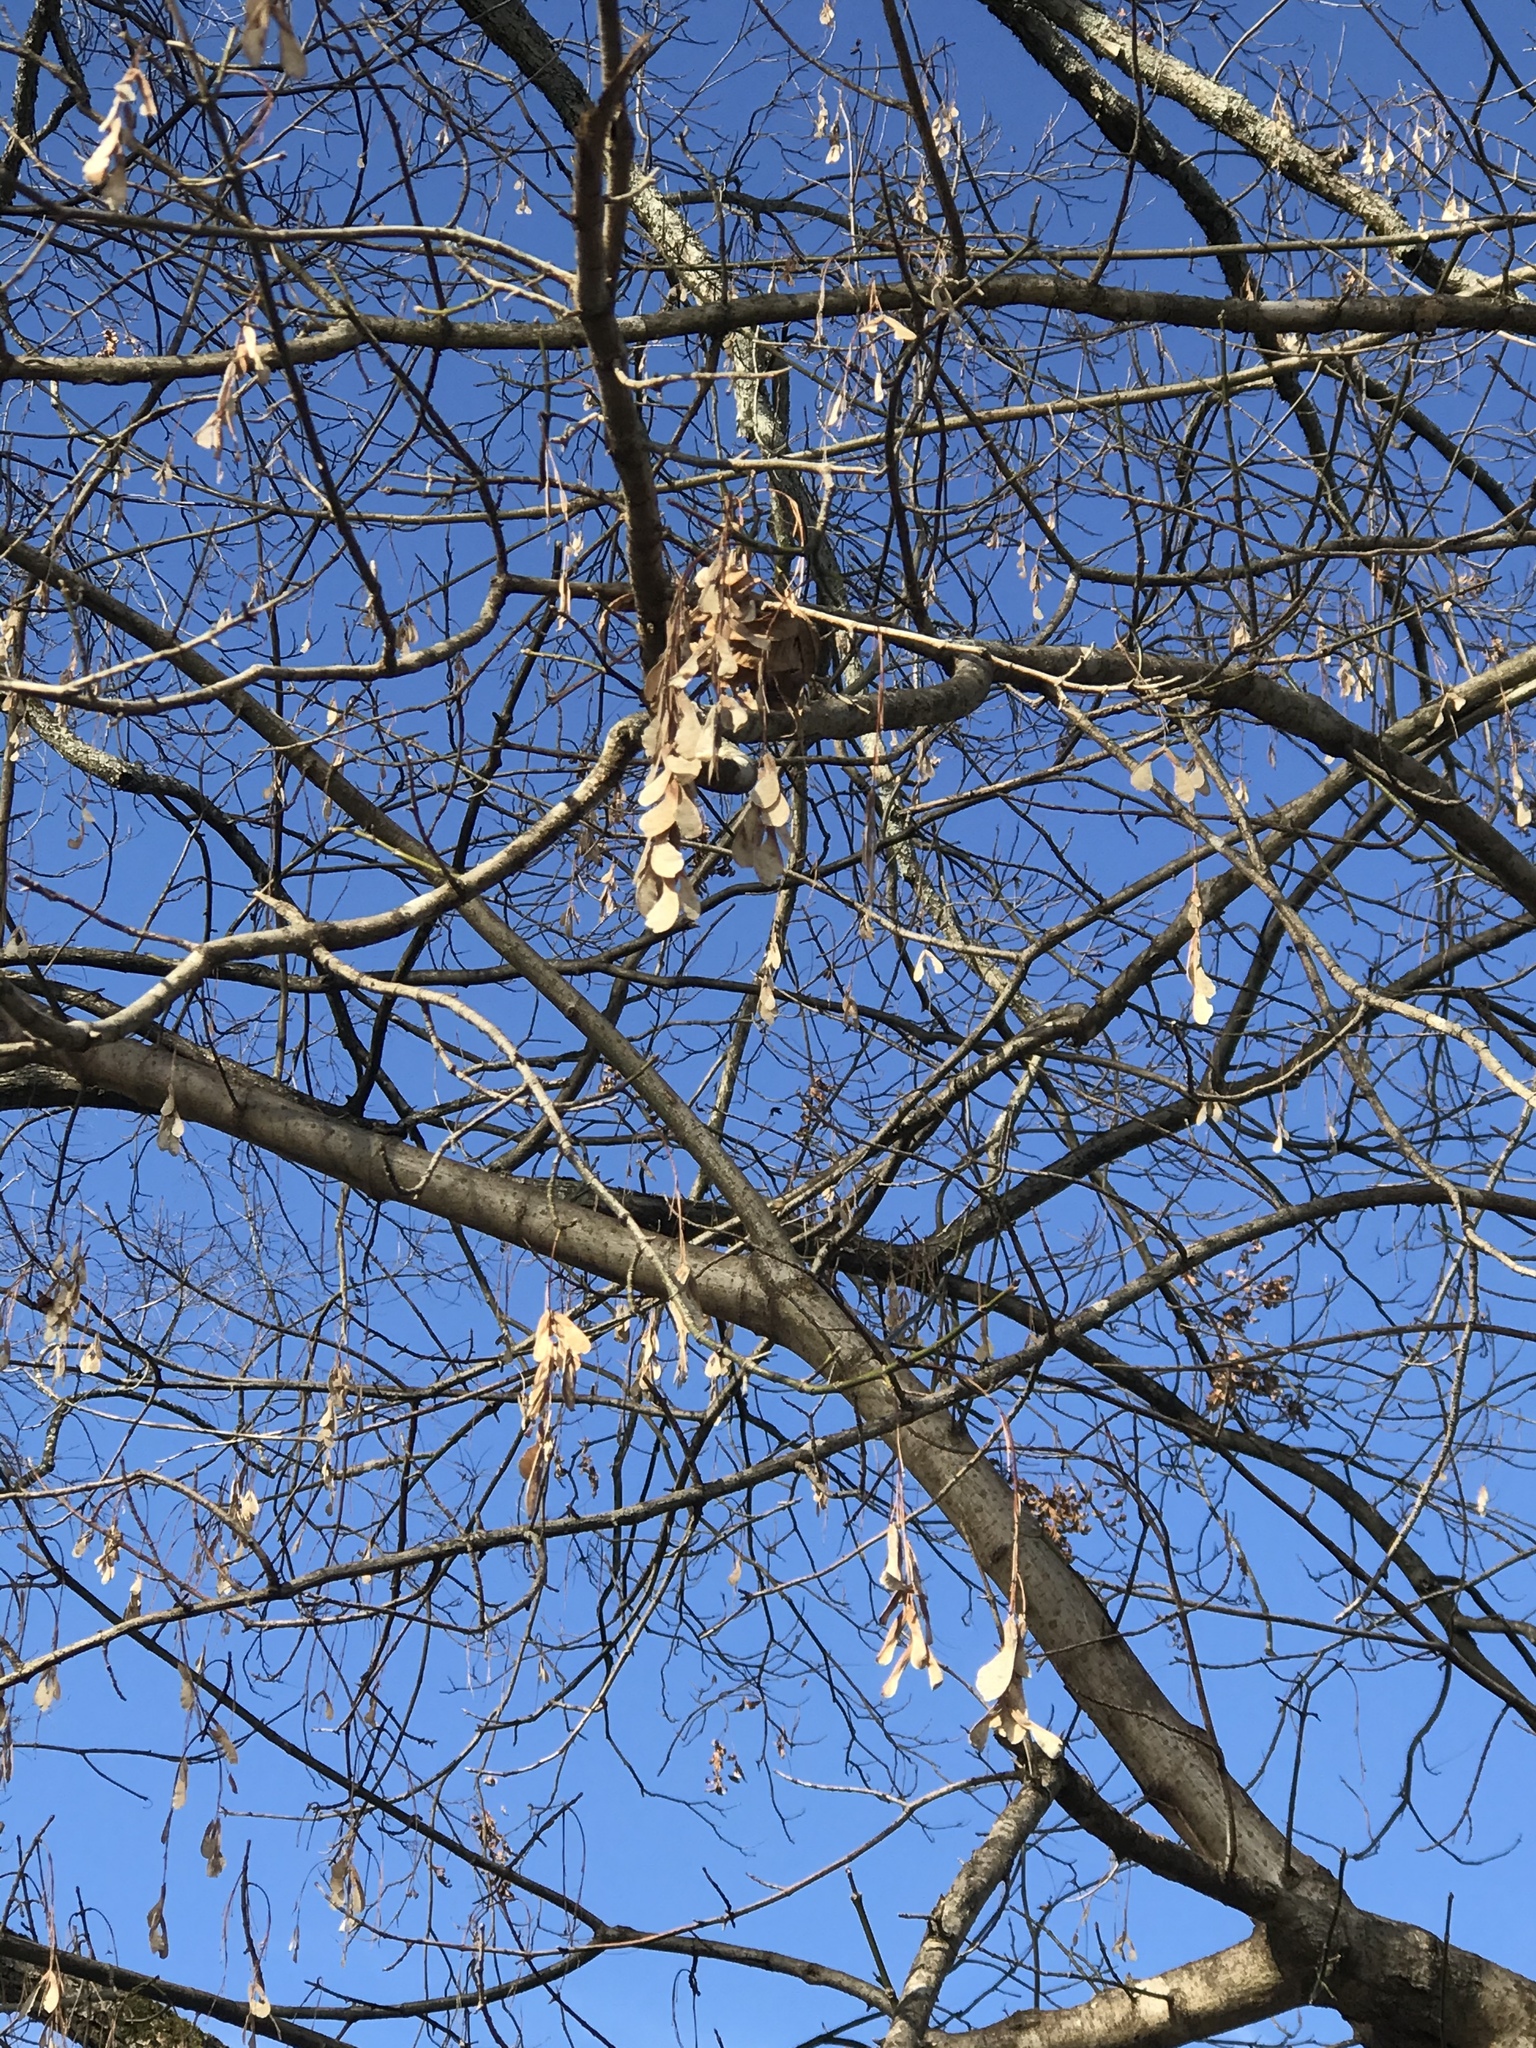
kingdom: Plantae
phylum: Tracheophyta
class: Magnoliopsida
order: Sapindales
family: Sapindaceae
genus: Acer
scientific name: Acer negundo
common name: Ashleaf maple
